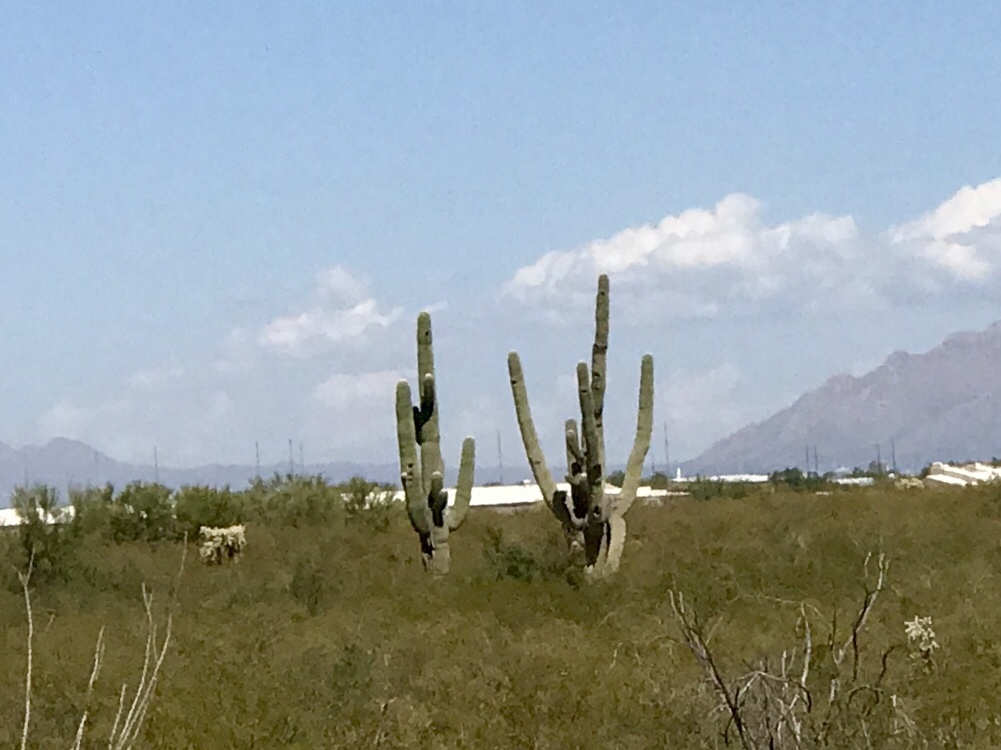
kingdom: Plantae
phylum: Tracheophyta
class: Magnoliopsida
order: Caryophyllales
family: Cactaceae
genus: Carnegiea
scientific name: Carnegiea gigantea
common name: Saguaro
